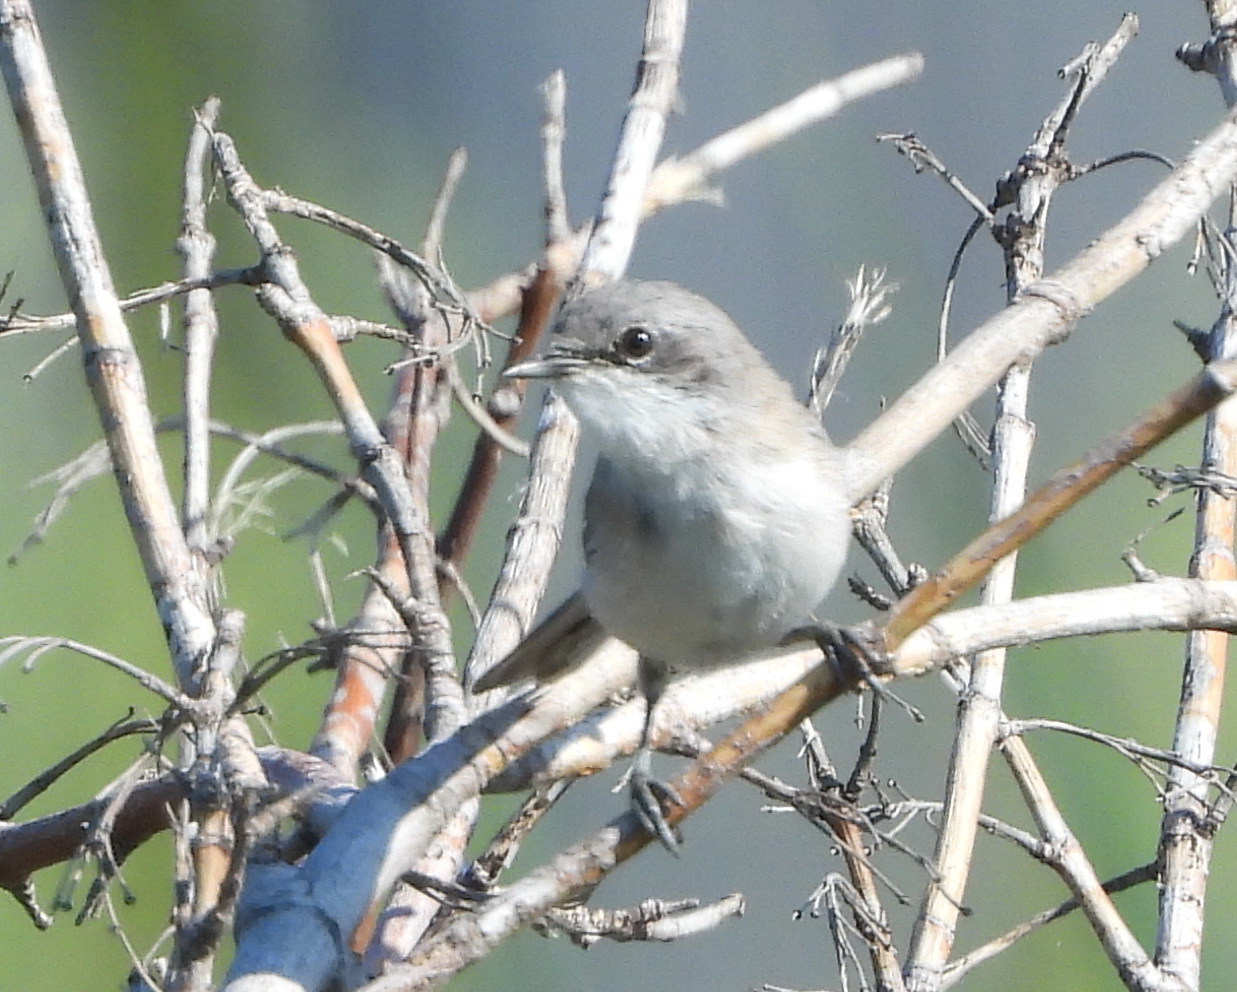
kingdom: Animalia
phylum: Chordata
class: Aves
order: Passeriformes
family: Sylviidae
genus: Sylvia
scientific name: Sylvia curruca
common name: Lesser whitethroat
